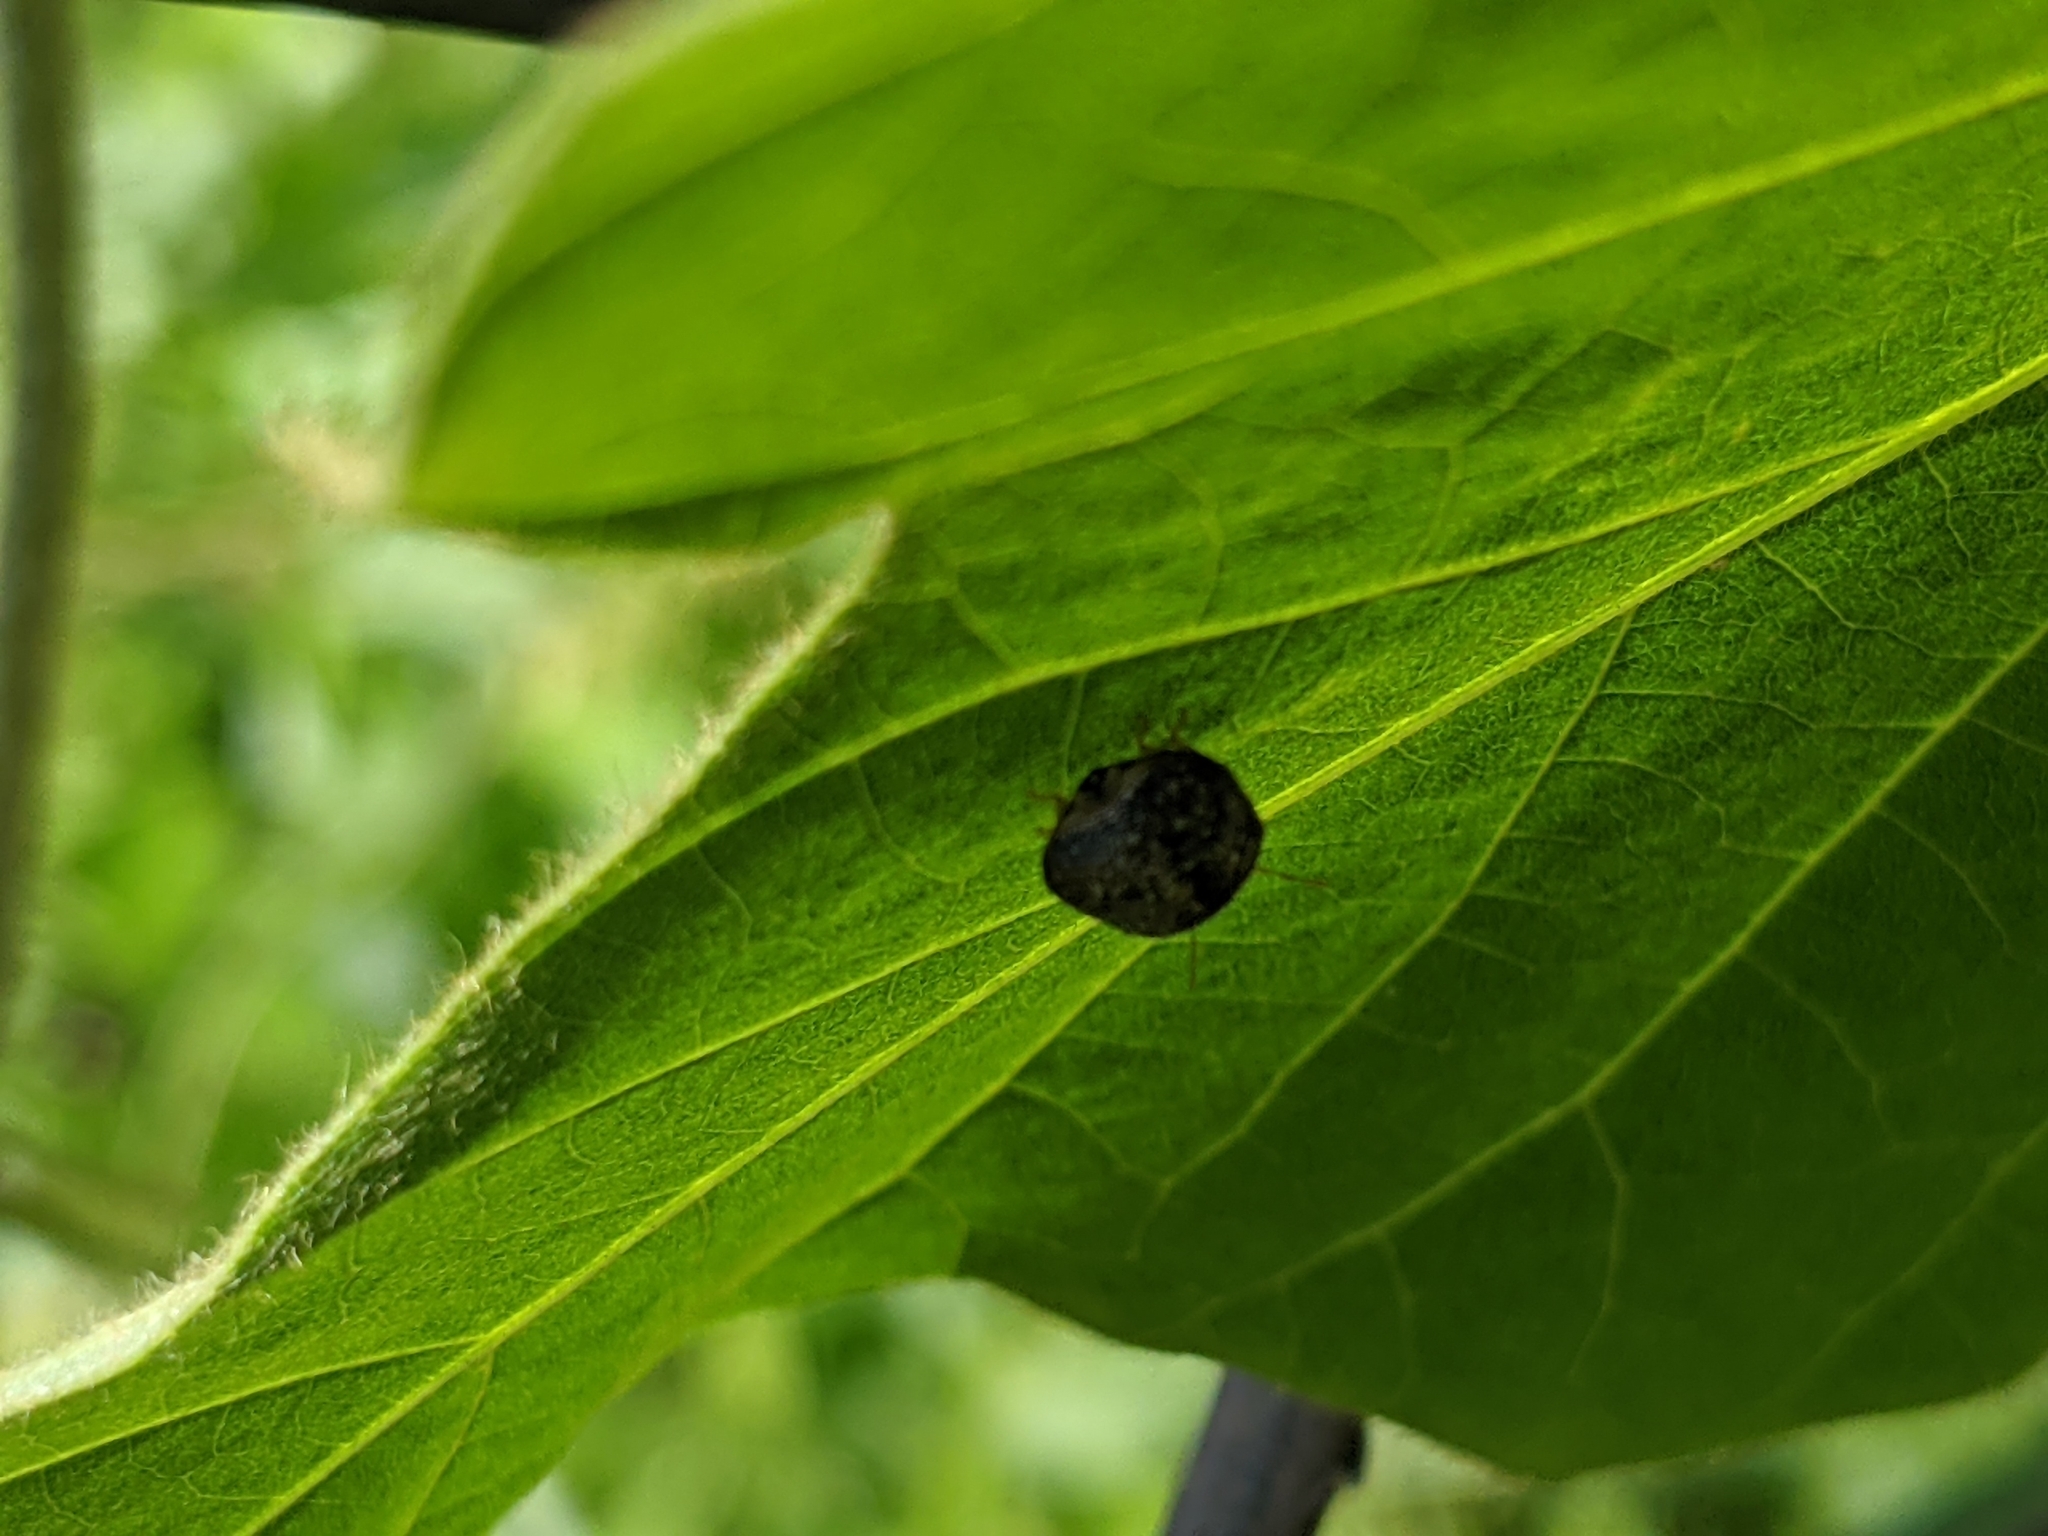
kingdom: Animalia
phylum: Arthropoda
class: Insecta
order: Hemiptera
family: Plataspidae
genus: Megacopta
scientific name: Megacopta cribraria
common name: Bean plataspid
